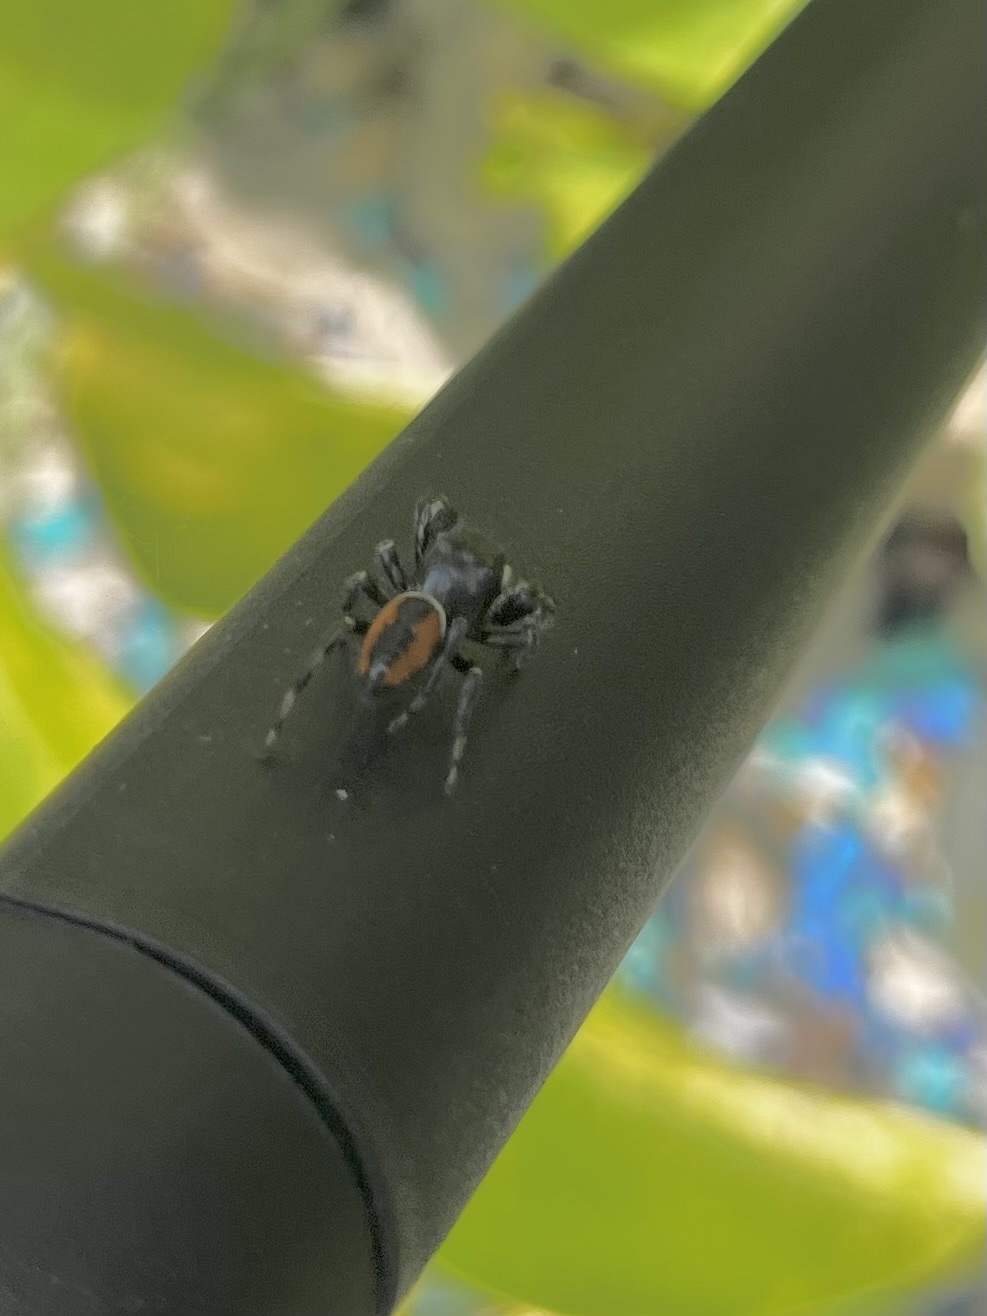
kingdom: Animalia
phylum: Arthropoda
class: Arachnida
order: Araneae
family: Salticidae
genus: Phidippus
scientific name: Phidippus clarus
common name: Brilliant jumping spider
